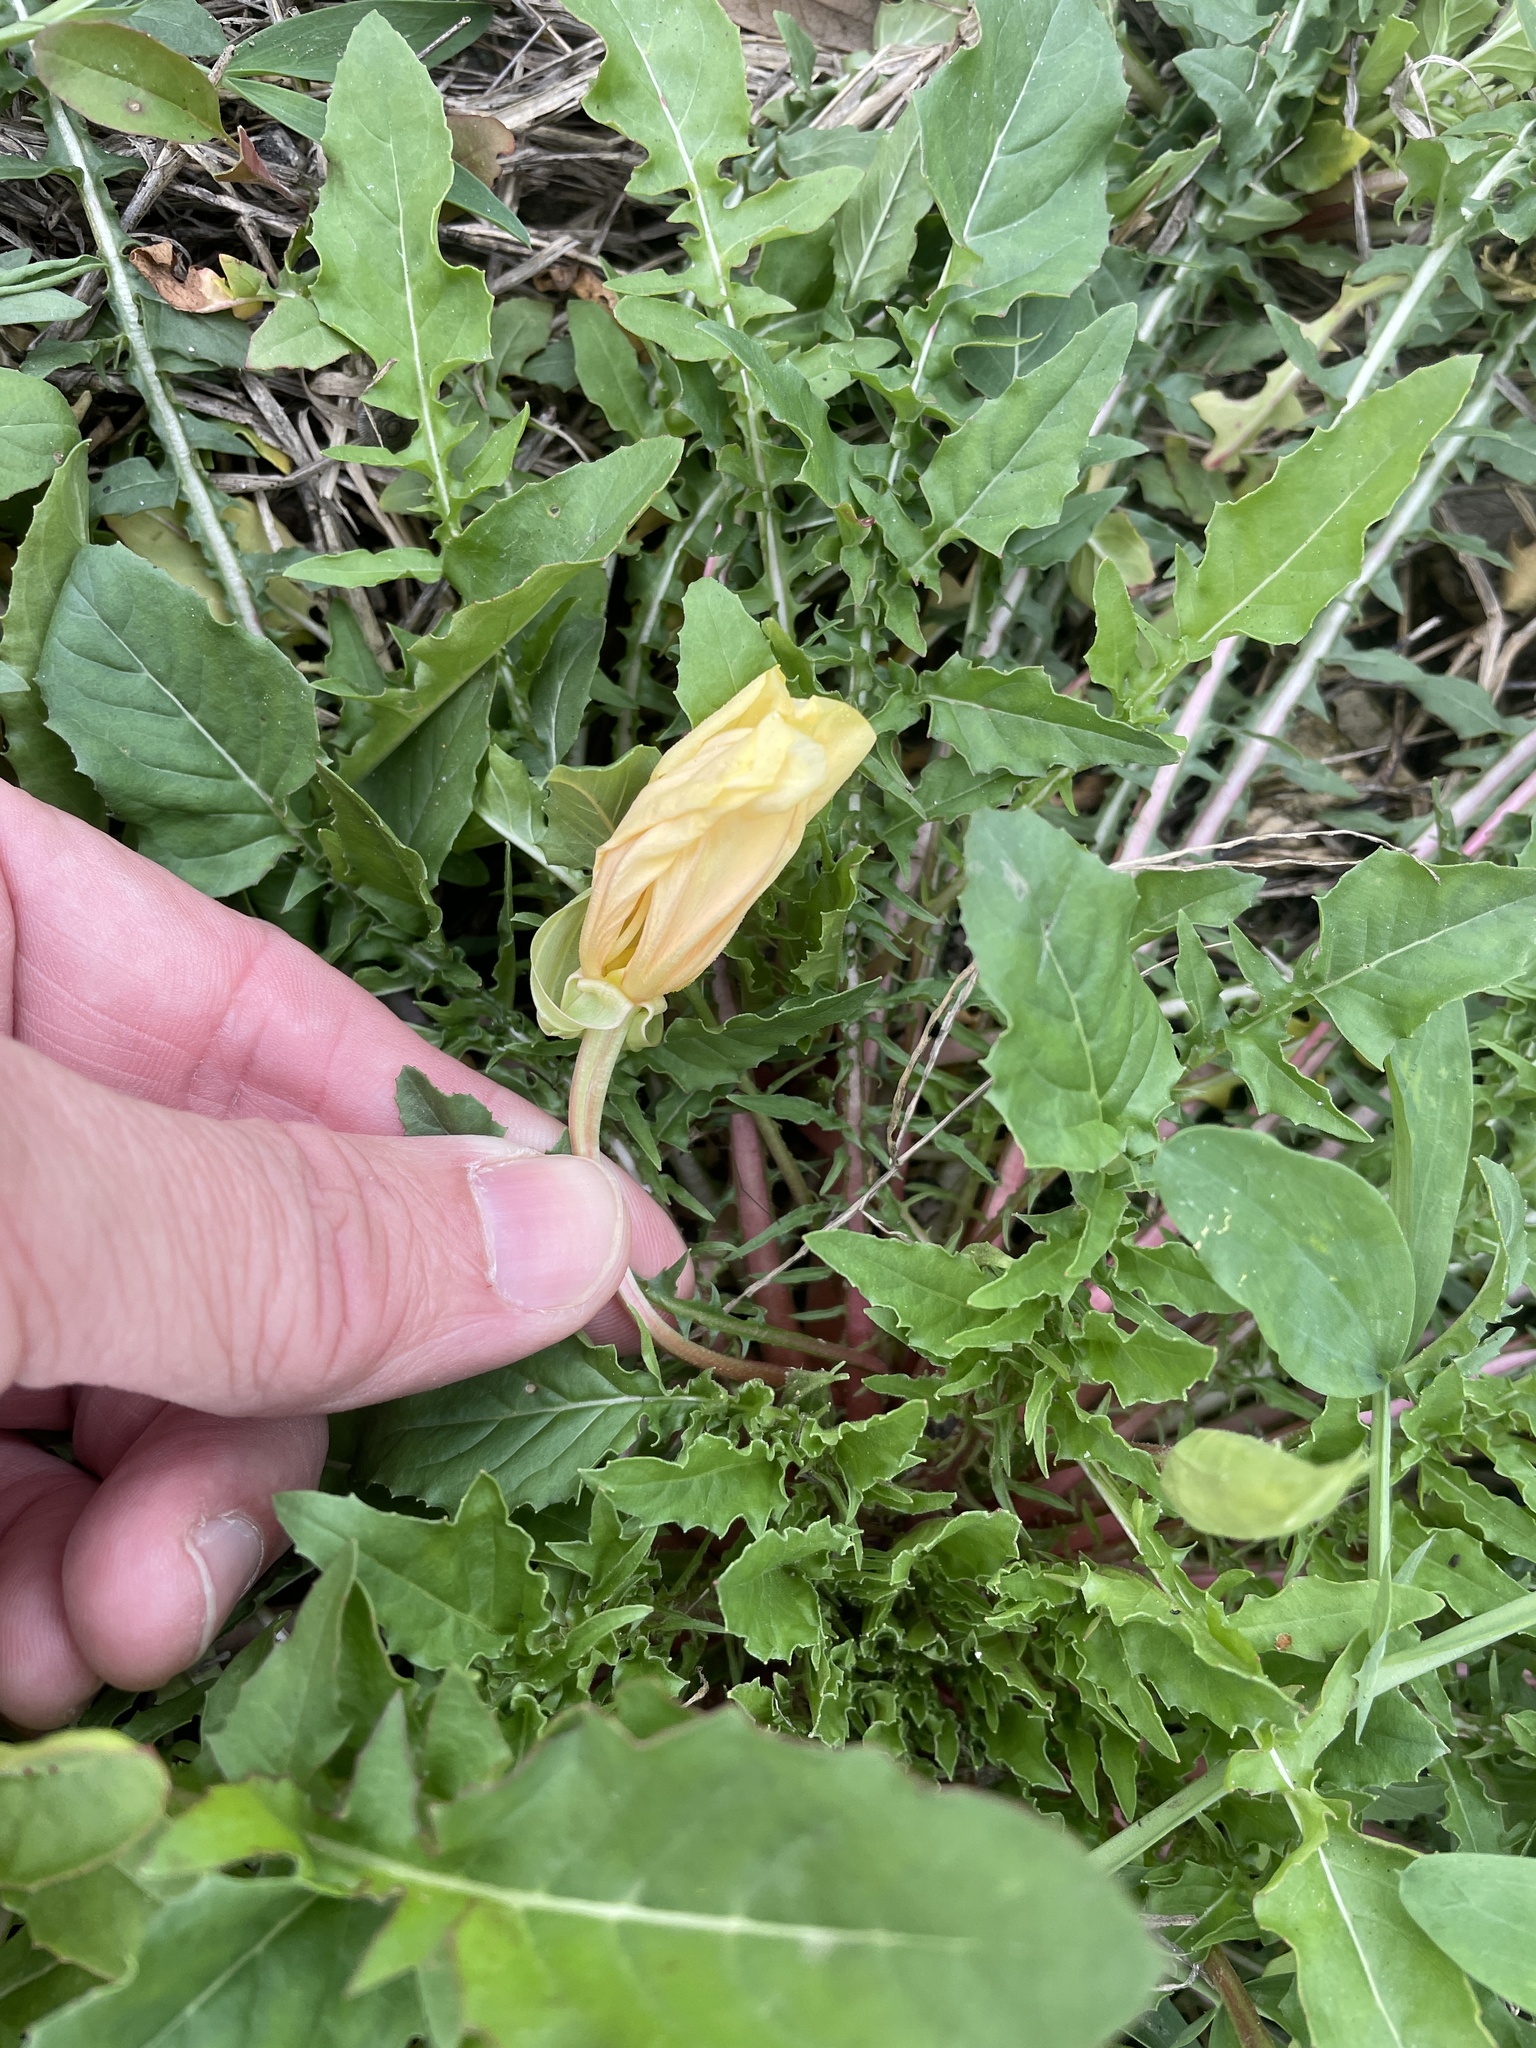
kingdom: Plantae
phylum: Tracheophyta
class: Magnoliopsida
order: Myrtales
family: Onagraceae
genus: Oenothera
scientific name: Oenothera triloba
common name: Sessile evening-primrose
